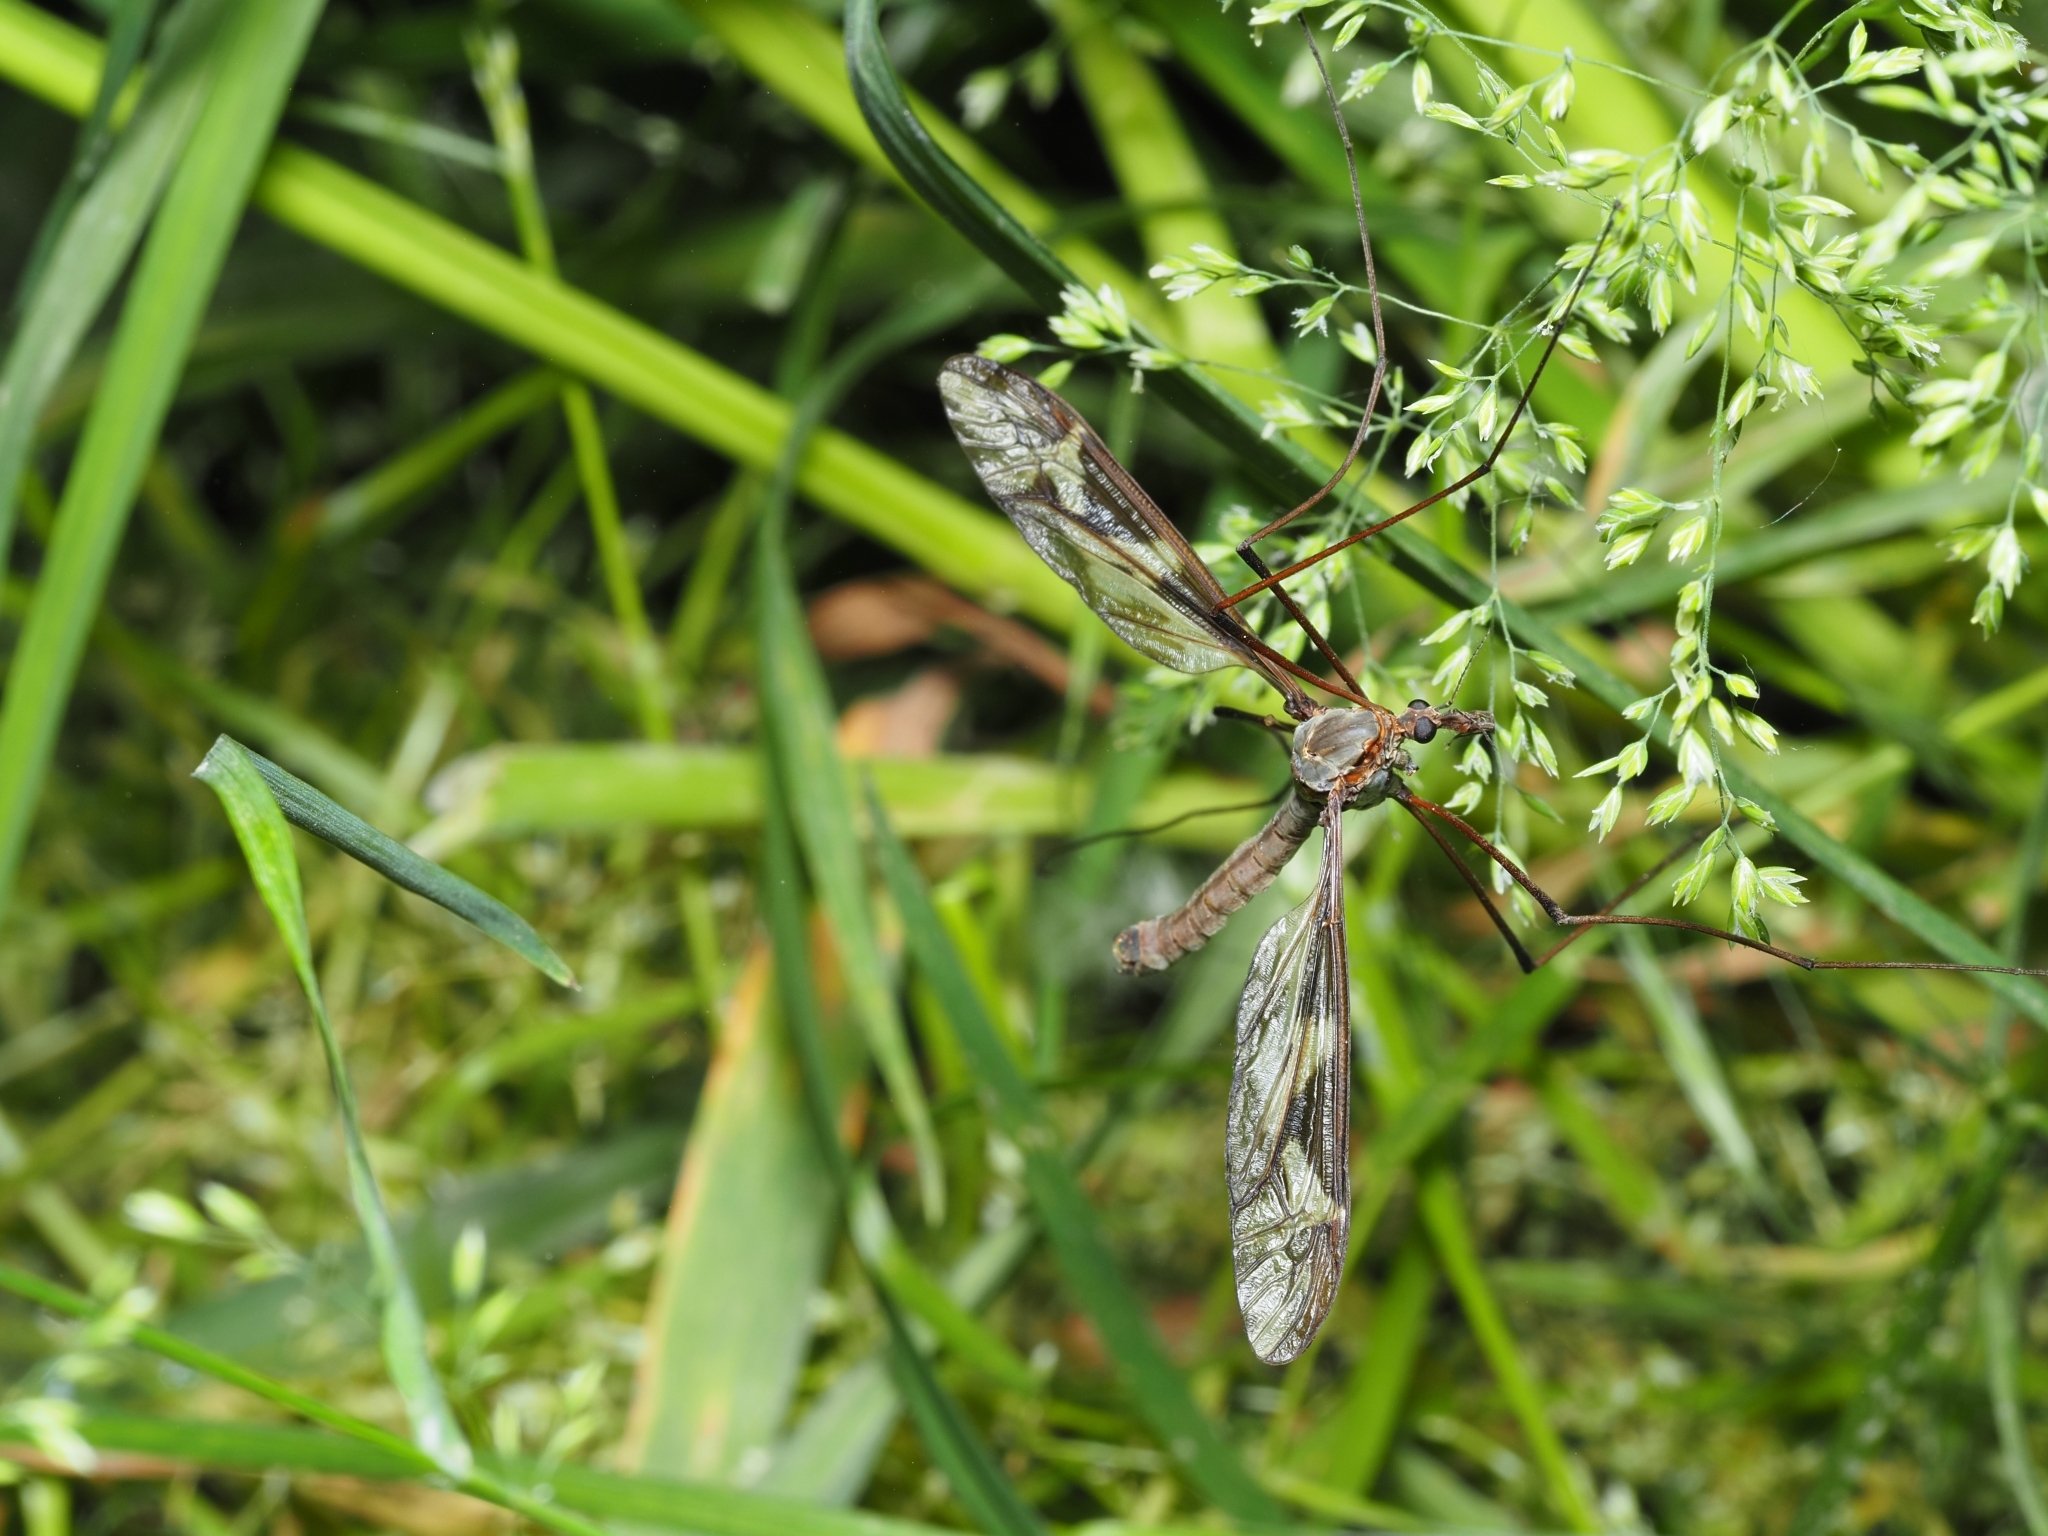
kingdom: Animalia
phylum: Arthropoda
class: Insecta
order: Diptera
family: Tipulidae
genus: Tipula
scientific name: Tipula maxima
